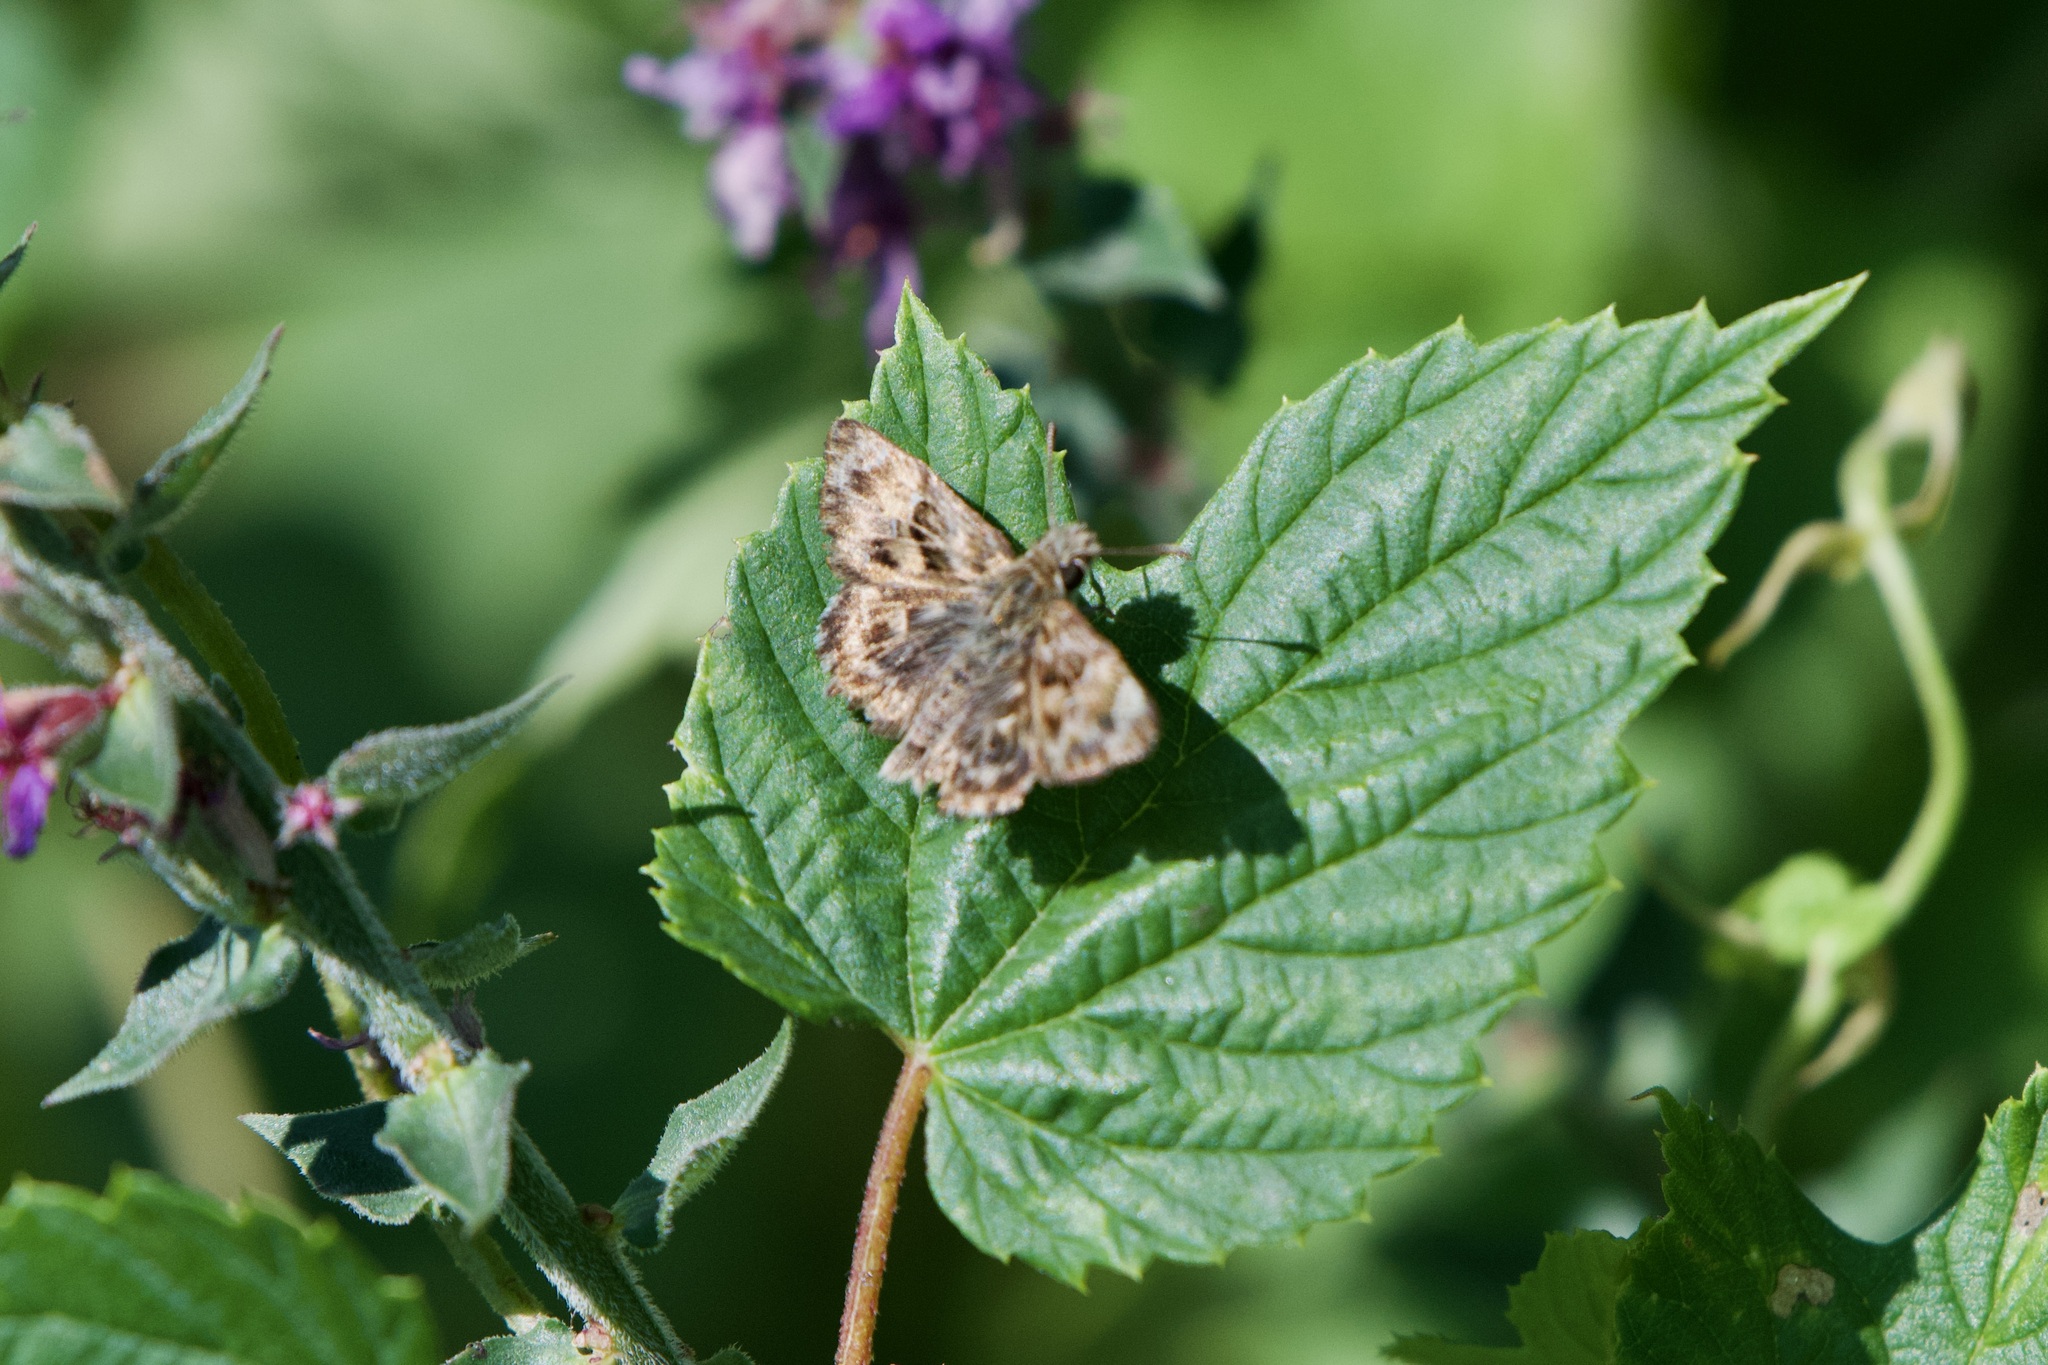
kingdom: Animalia
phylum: Arthropoda
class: Insecta
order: Lepidoptera
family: Hesperiidae
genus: Carcharodus
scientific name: Carcharodus alceae
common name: Mallow skipper
